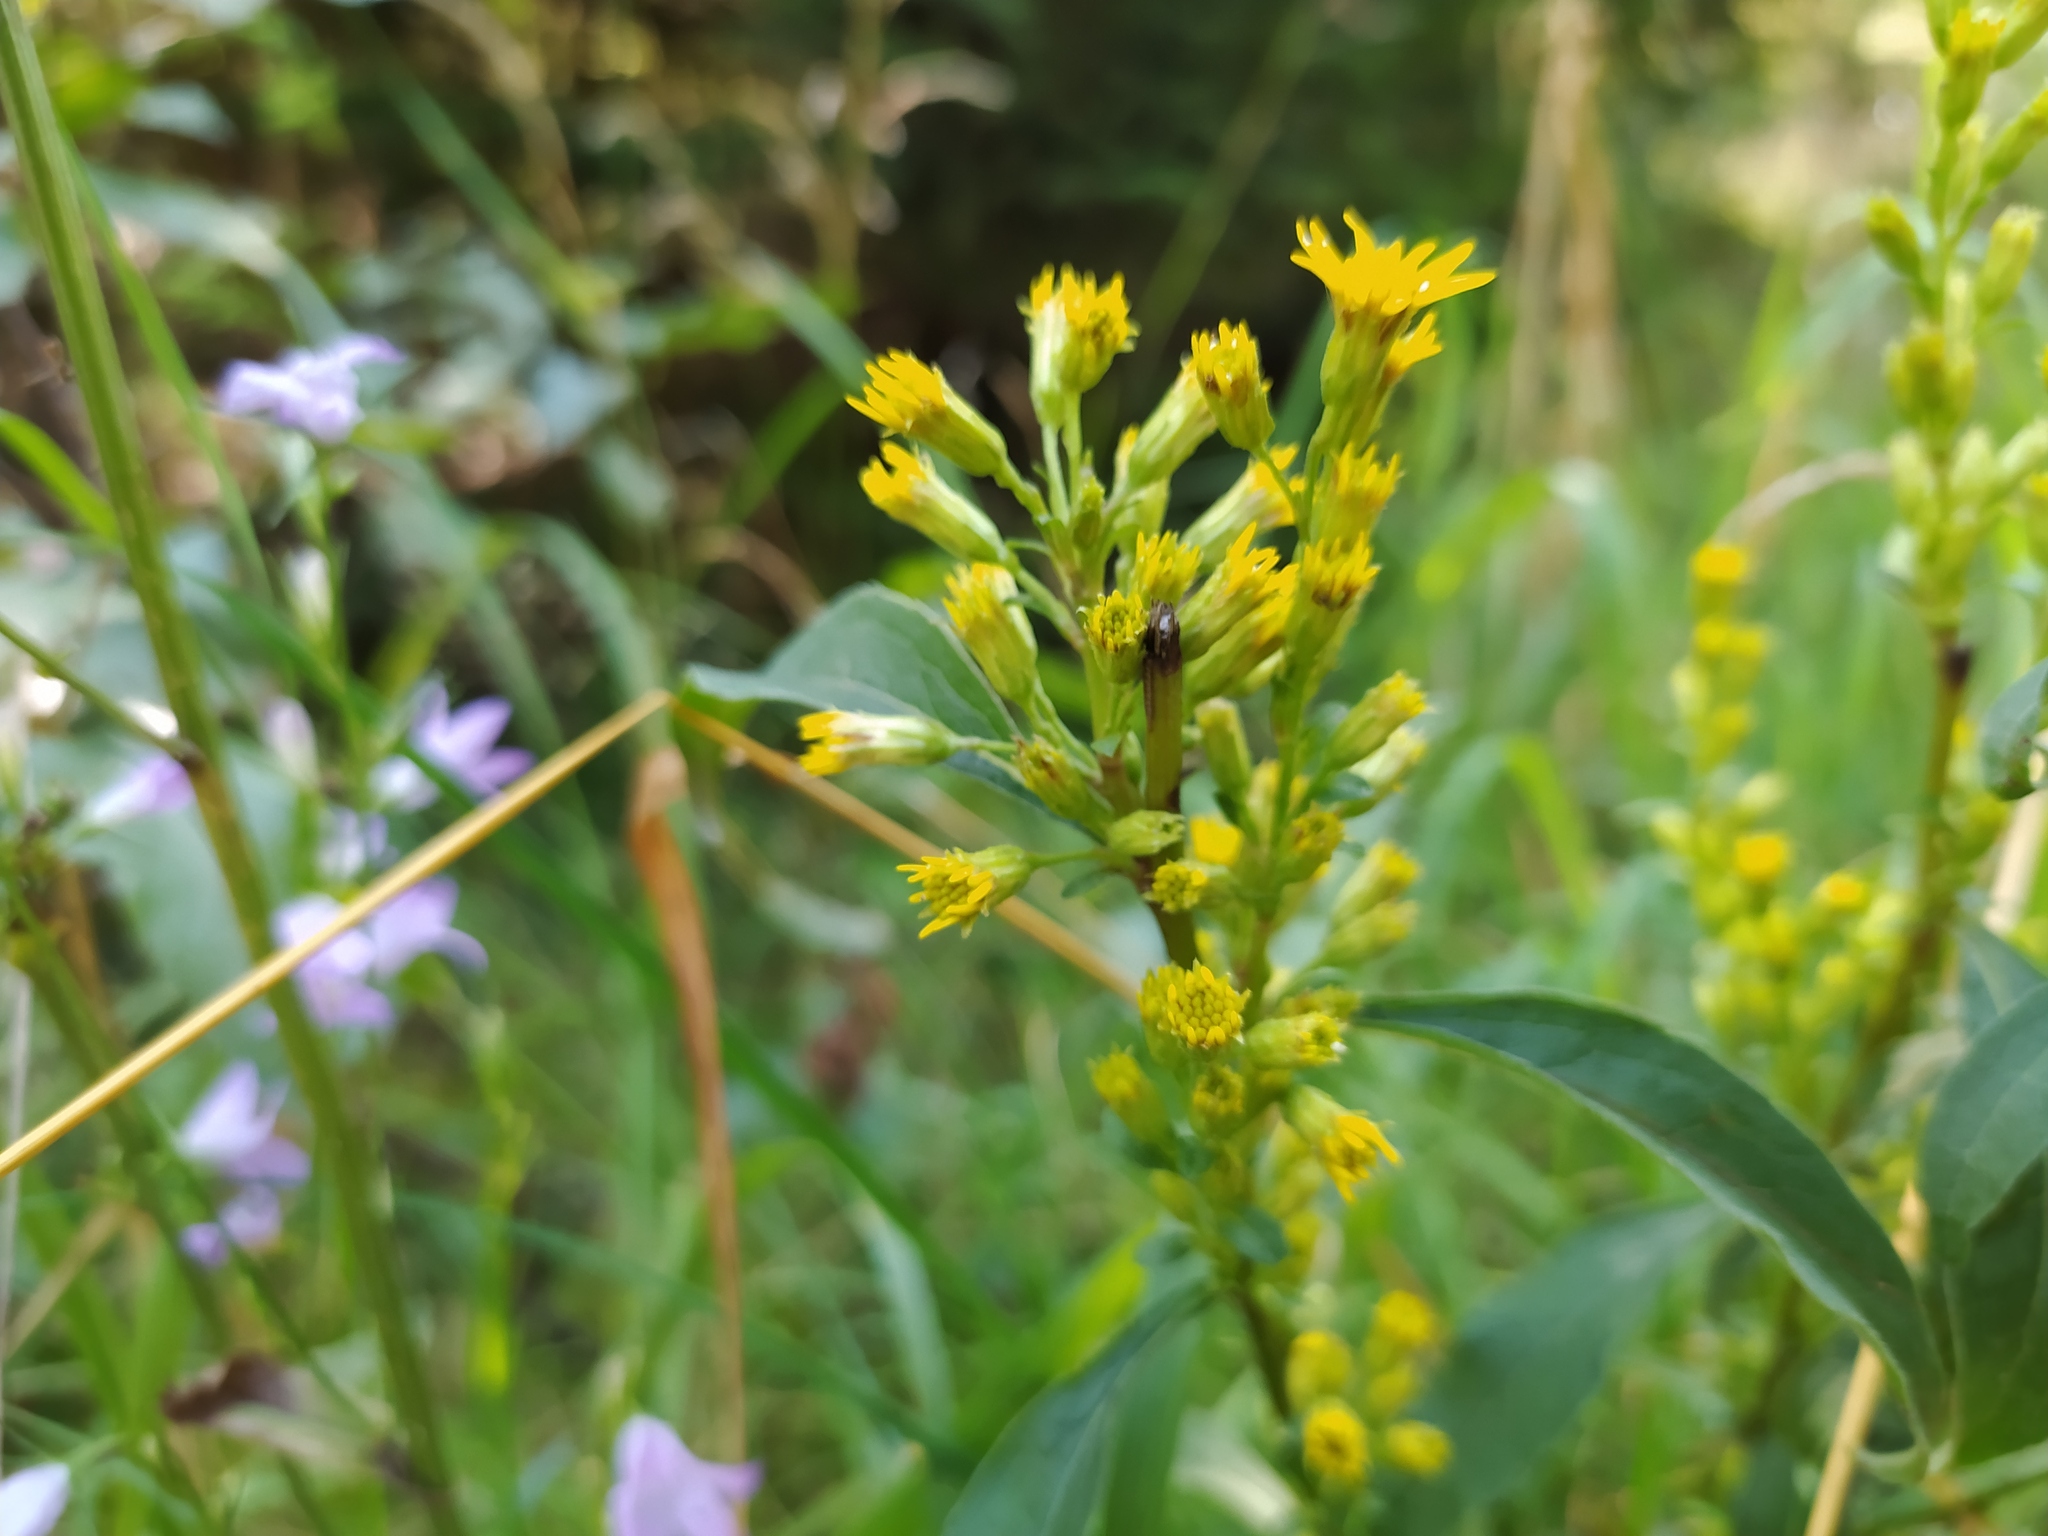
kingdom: Plantae
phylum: Tracheophyta
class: Magnoliopsida
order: Asterales
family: Asteraceae
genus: Solidago
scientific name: Solidago virgaurea
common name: Goldenrod
